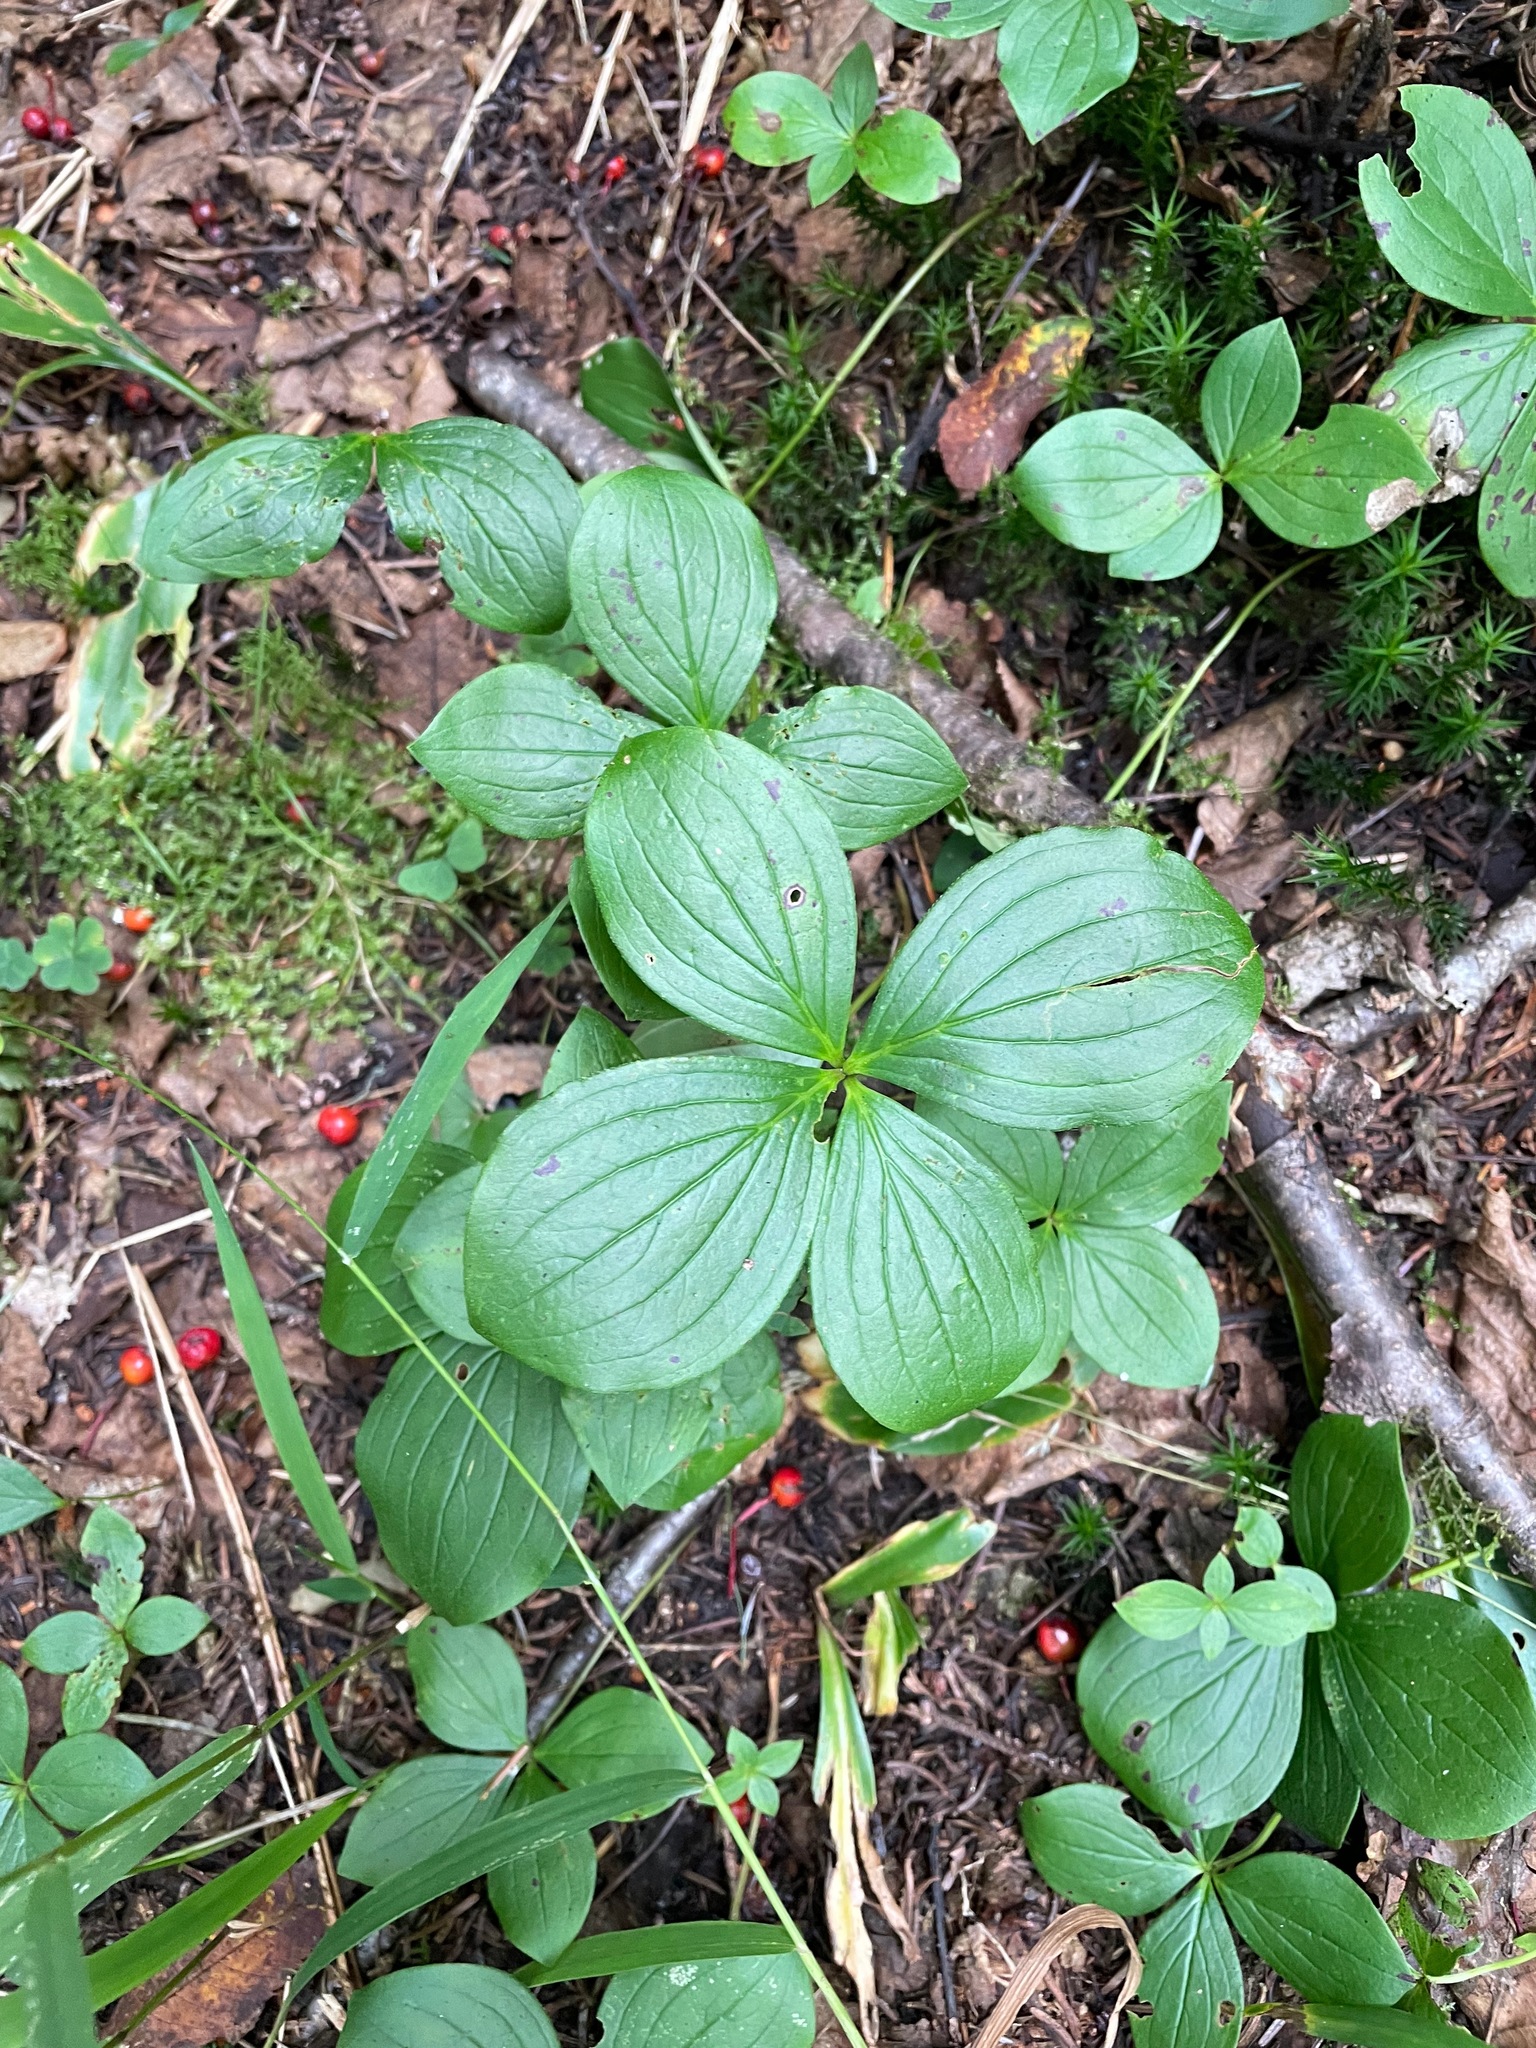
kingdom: Plantae
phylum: Tracheophyta
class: Magnoliopsida
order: Cornales
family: Cornaceae
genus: Cornus
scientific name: Cornus canadensis
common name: Creeping dogwood
